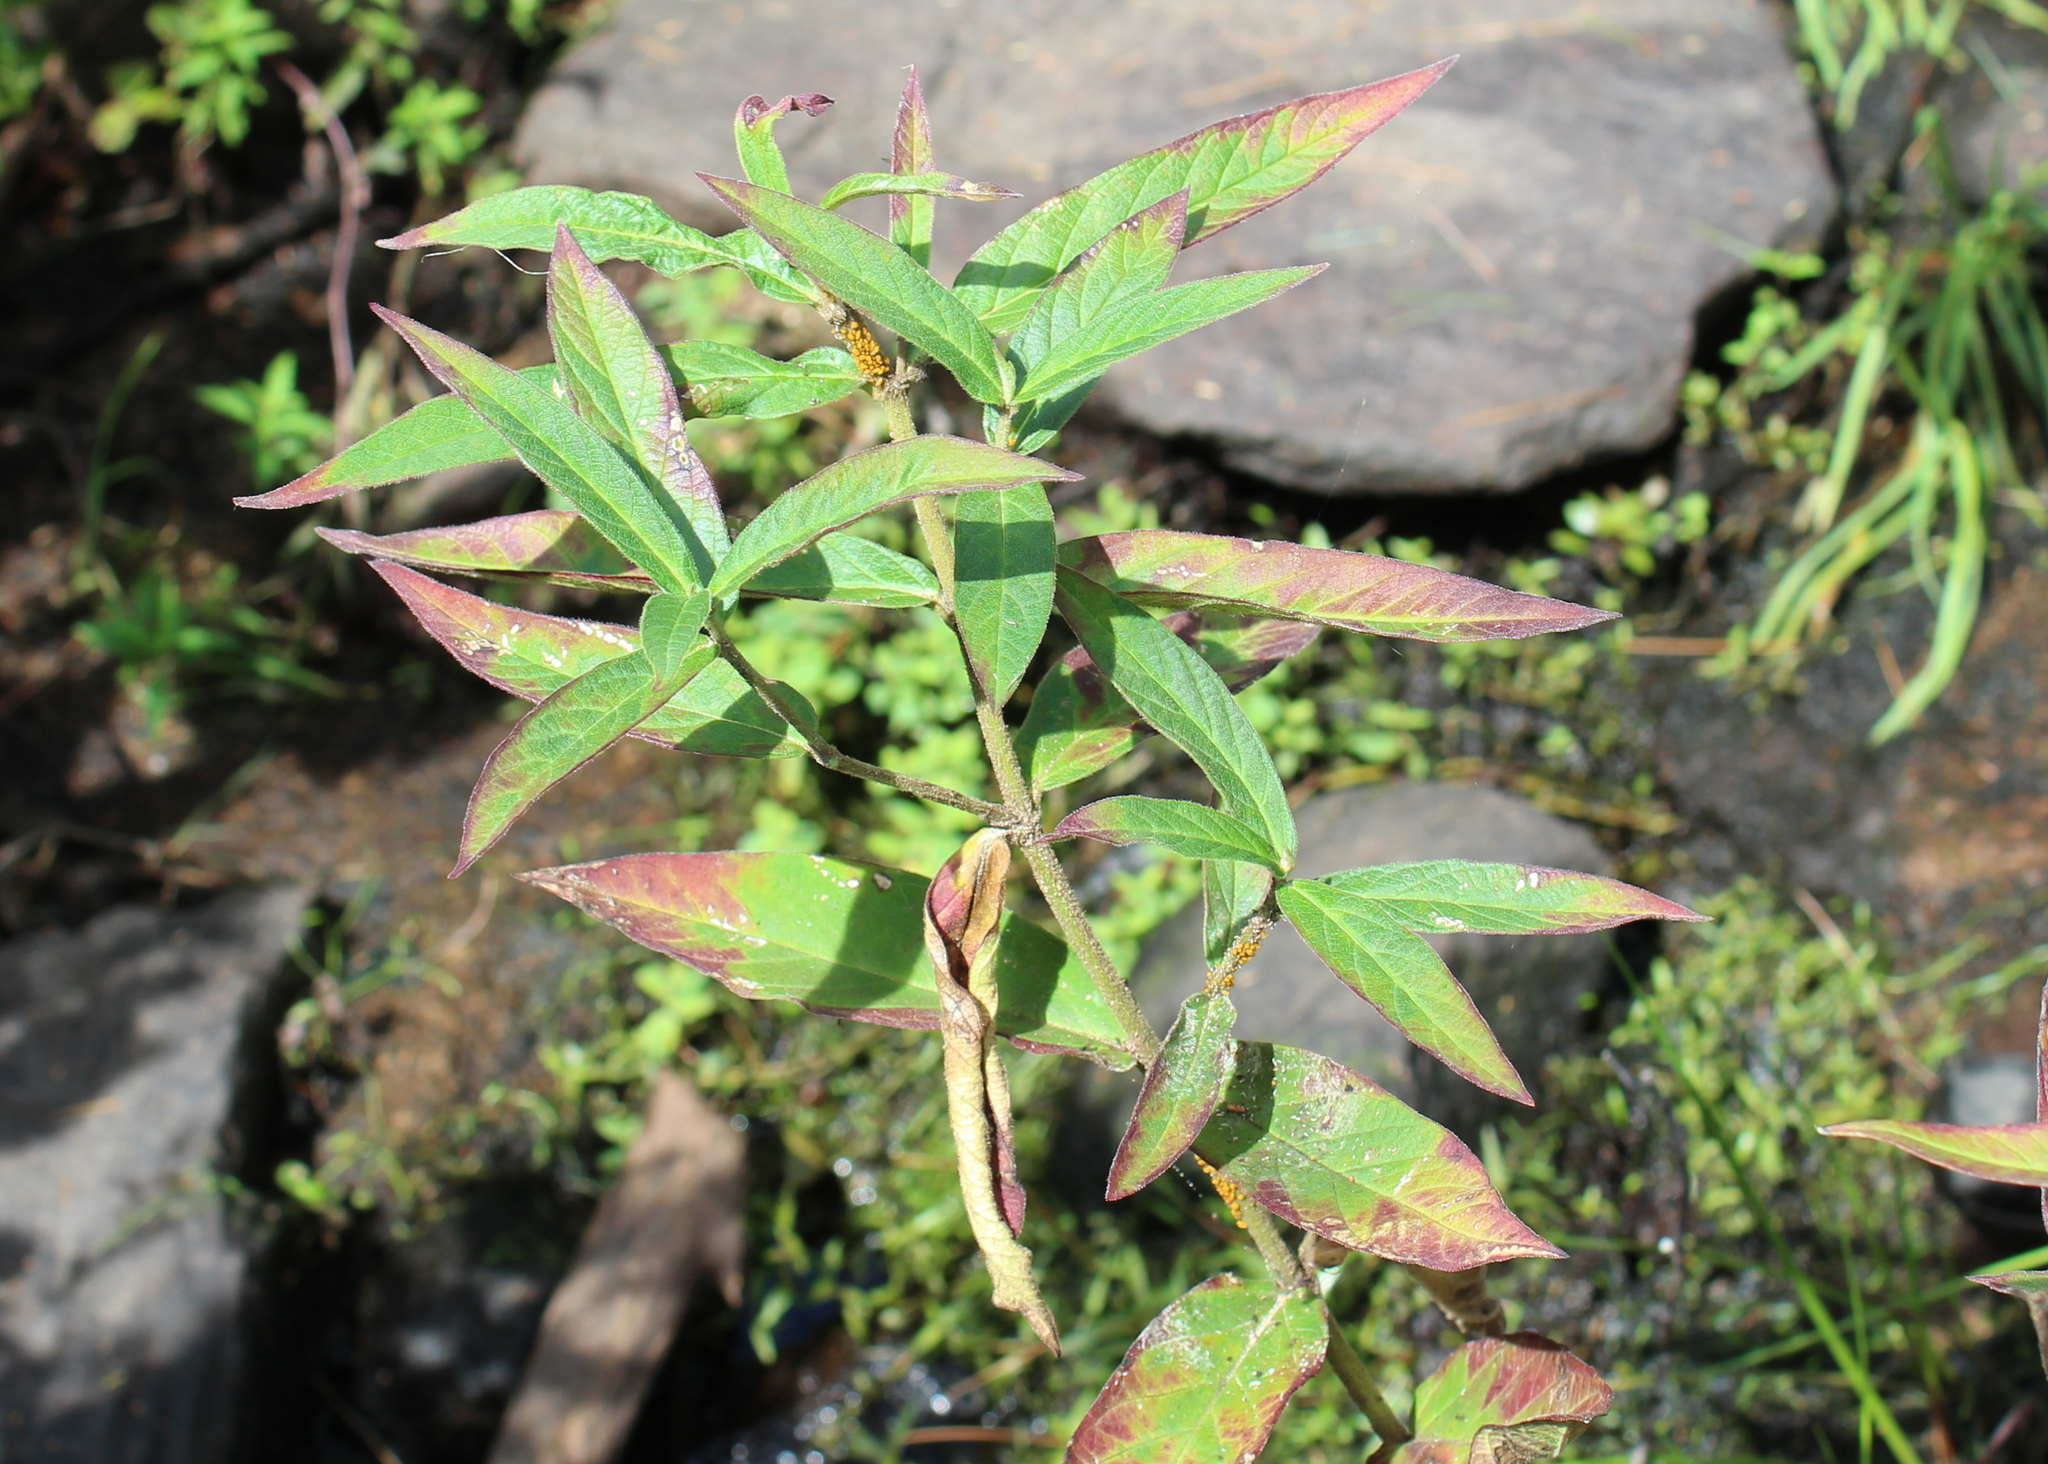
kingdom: Plantae
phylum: Tracheophyta
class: Magnoliopsida
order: Gentianales
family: Apocynaceae
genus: Asclepias
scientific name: Asclepias incarnata
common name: Swamp milkweed
